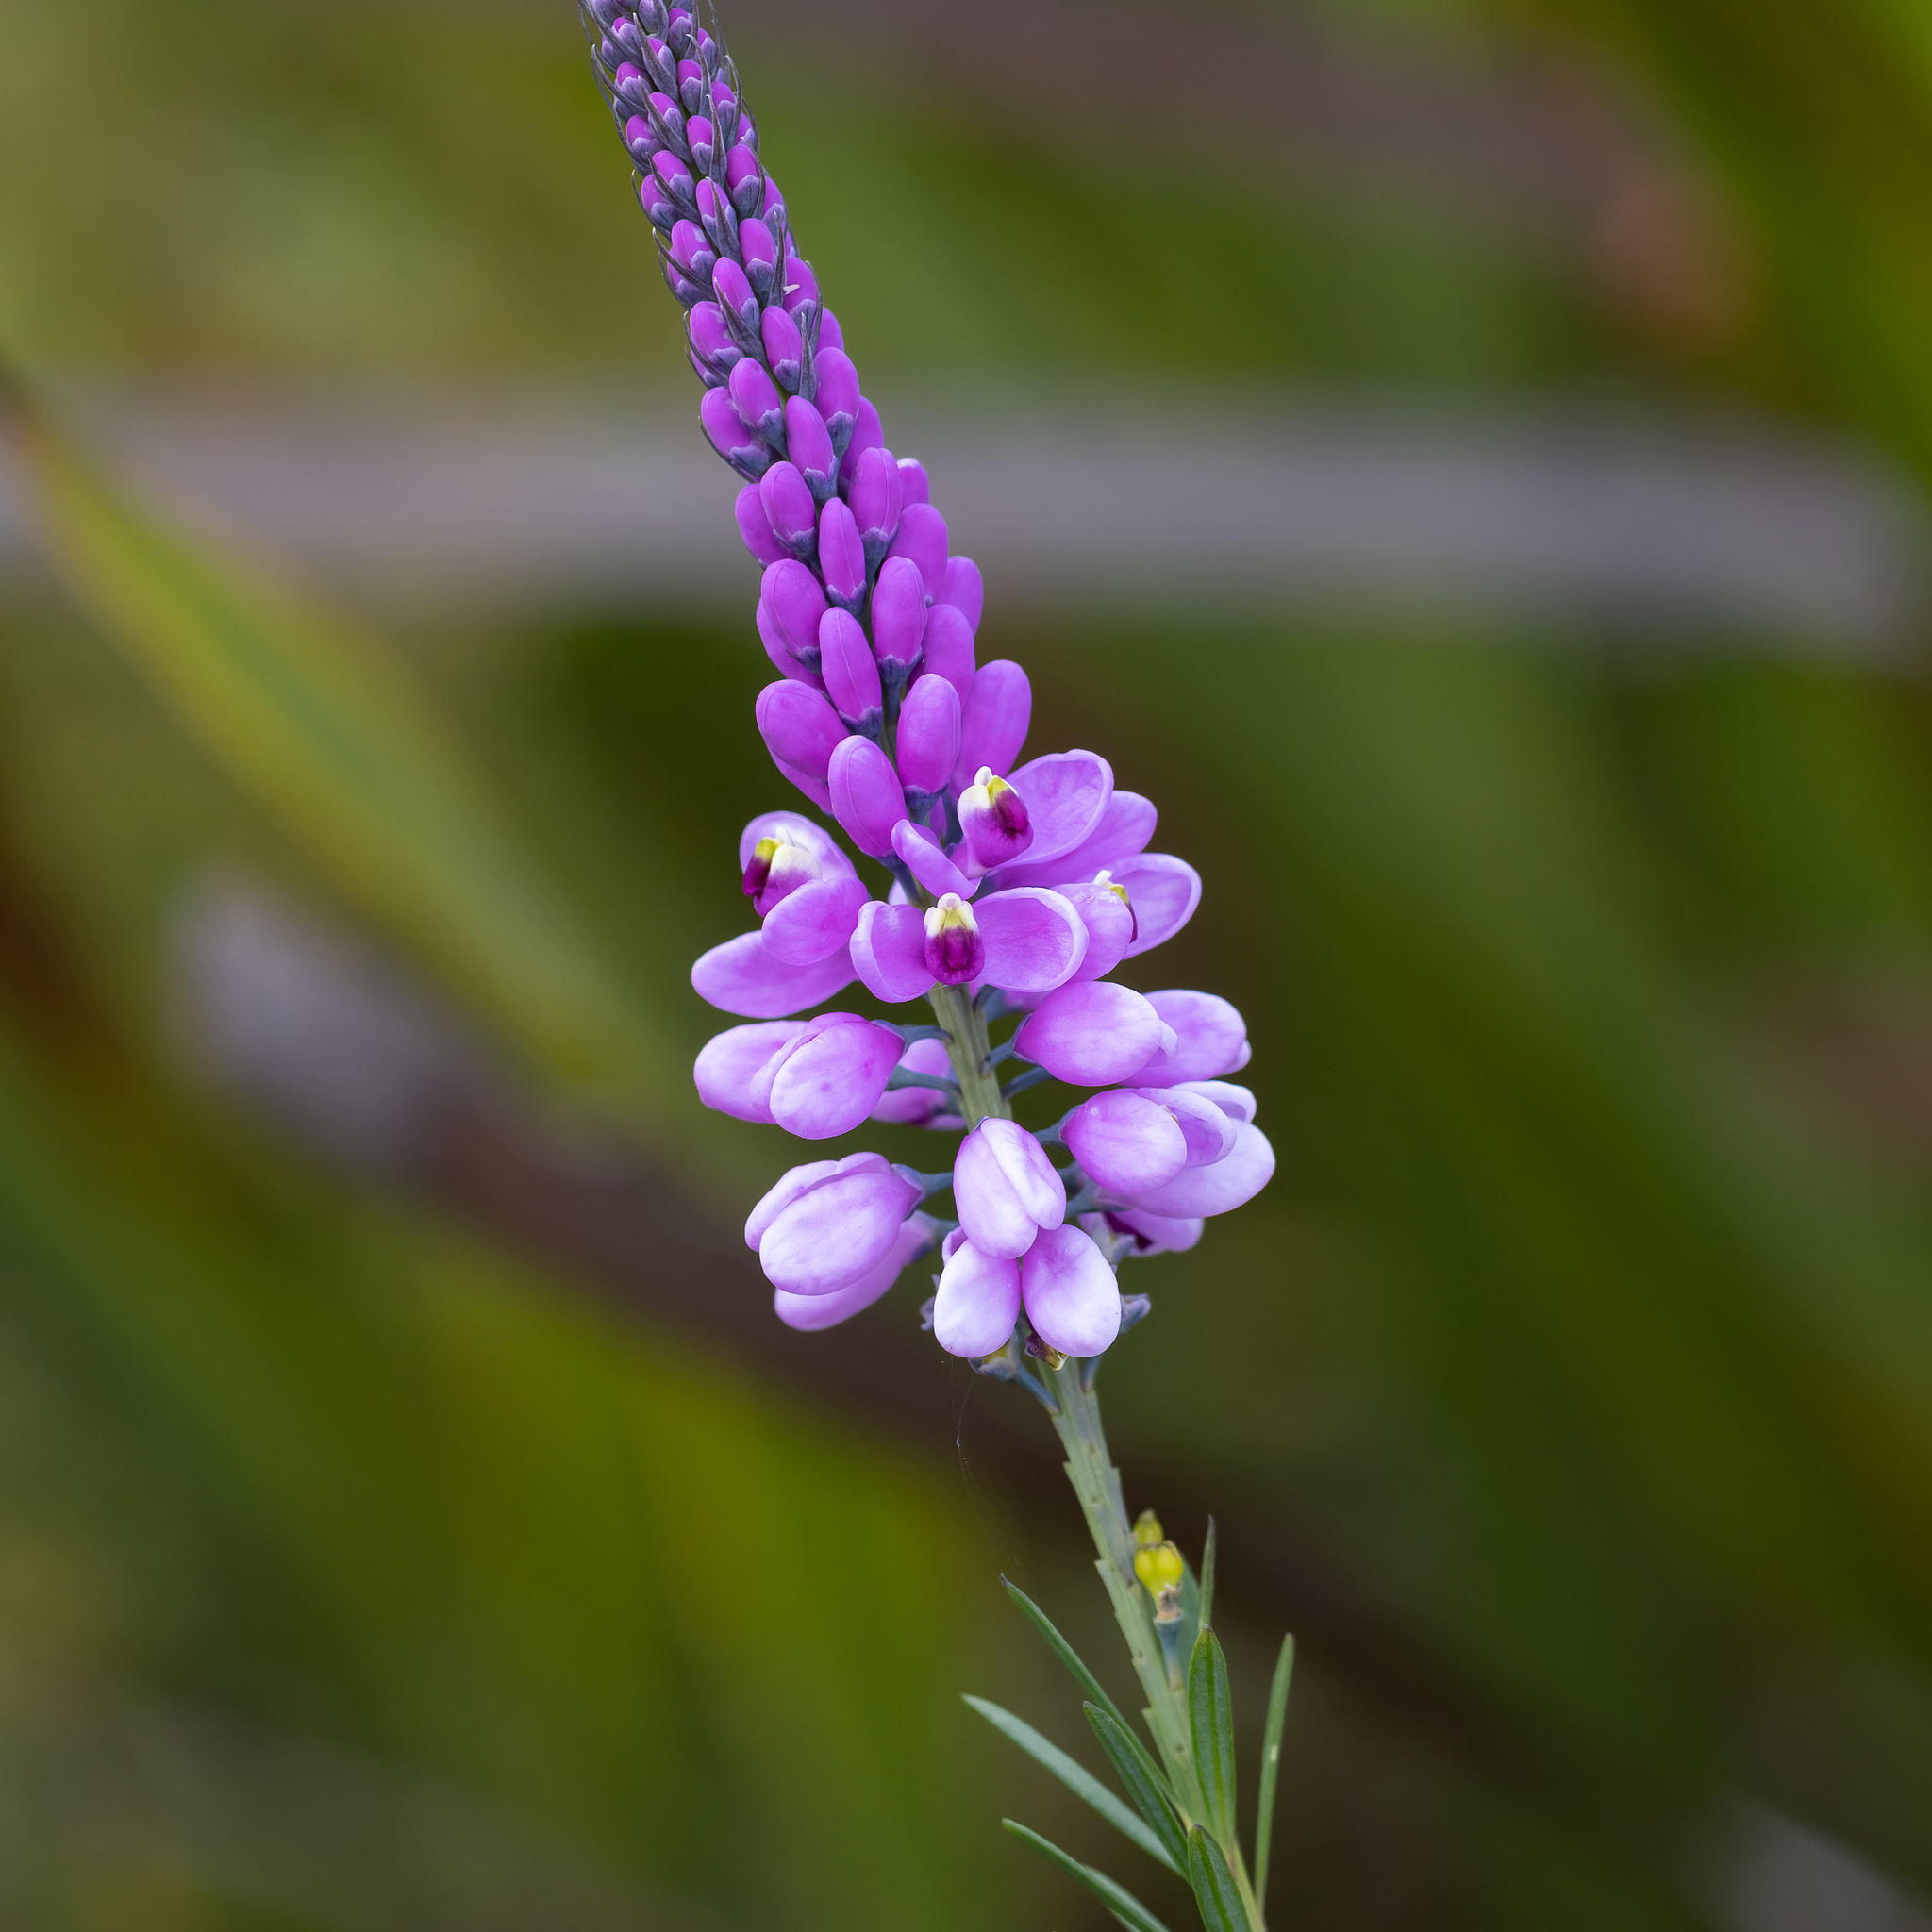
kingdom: Plantae
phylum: Tracheophyta
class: Magnoliopsida
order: Fabales
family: Polygalaceae
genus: Comesperma
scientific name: Comesperma virgatum
